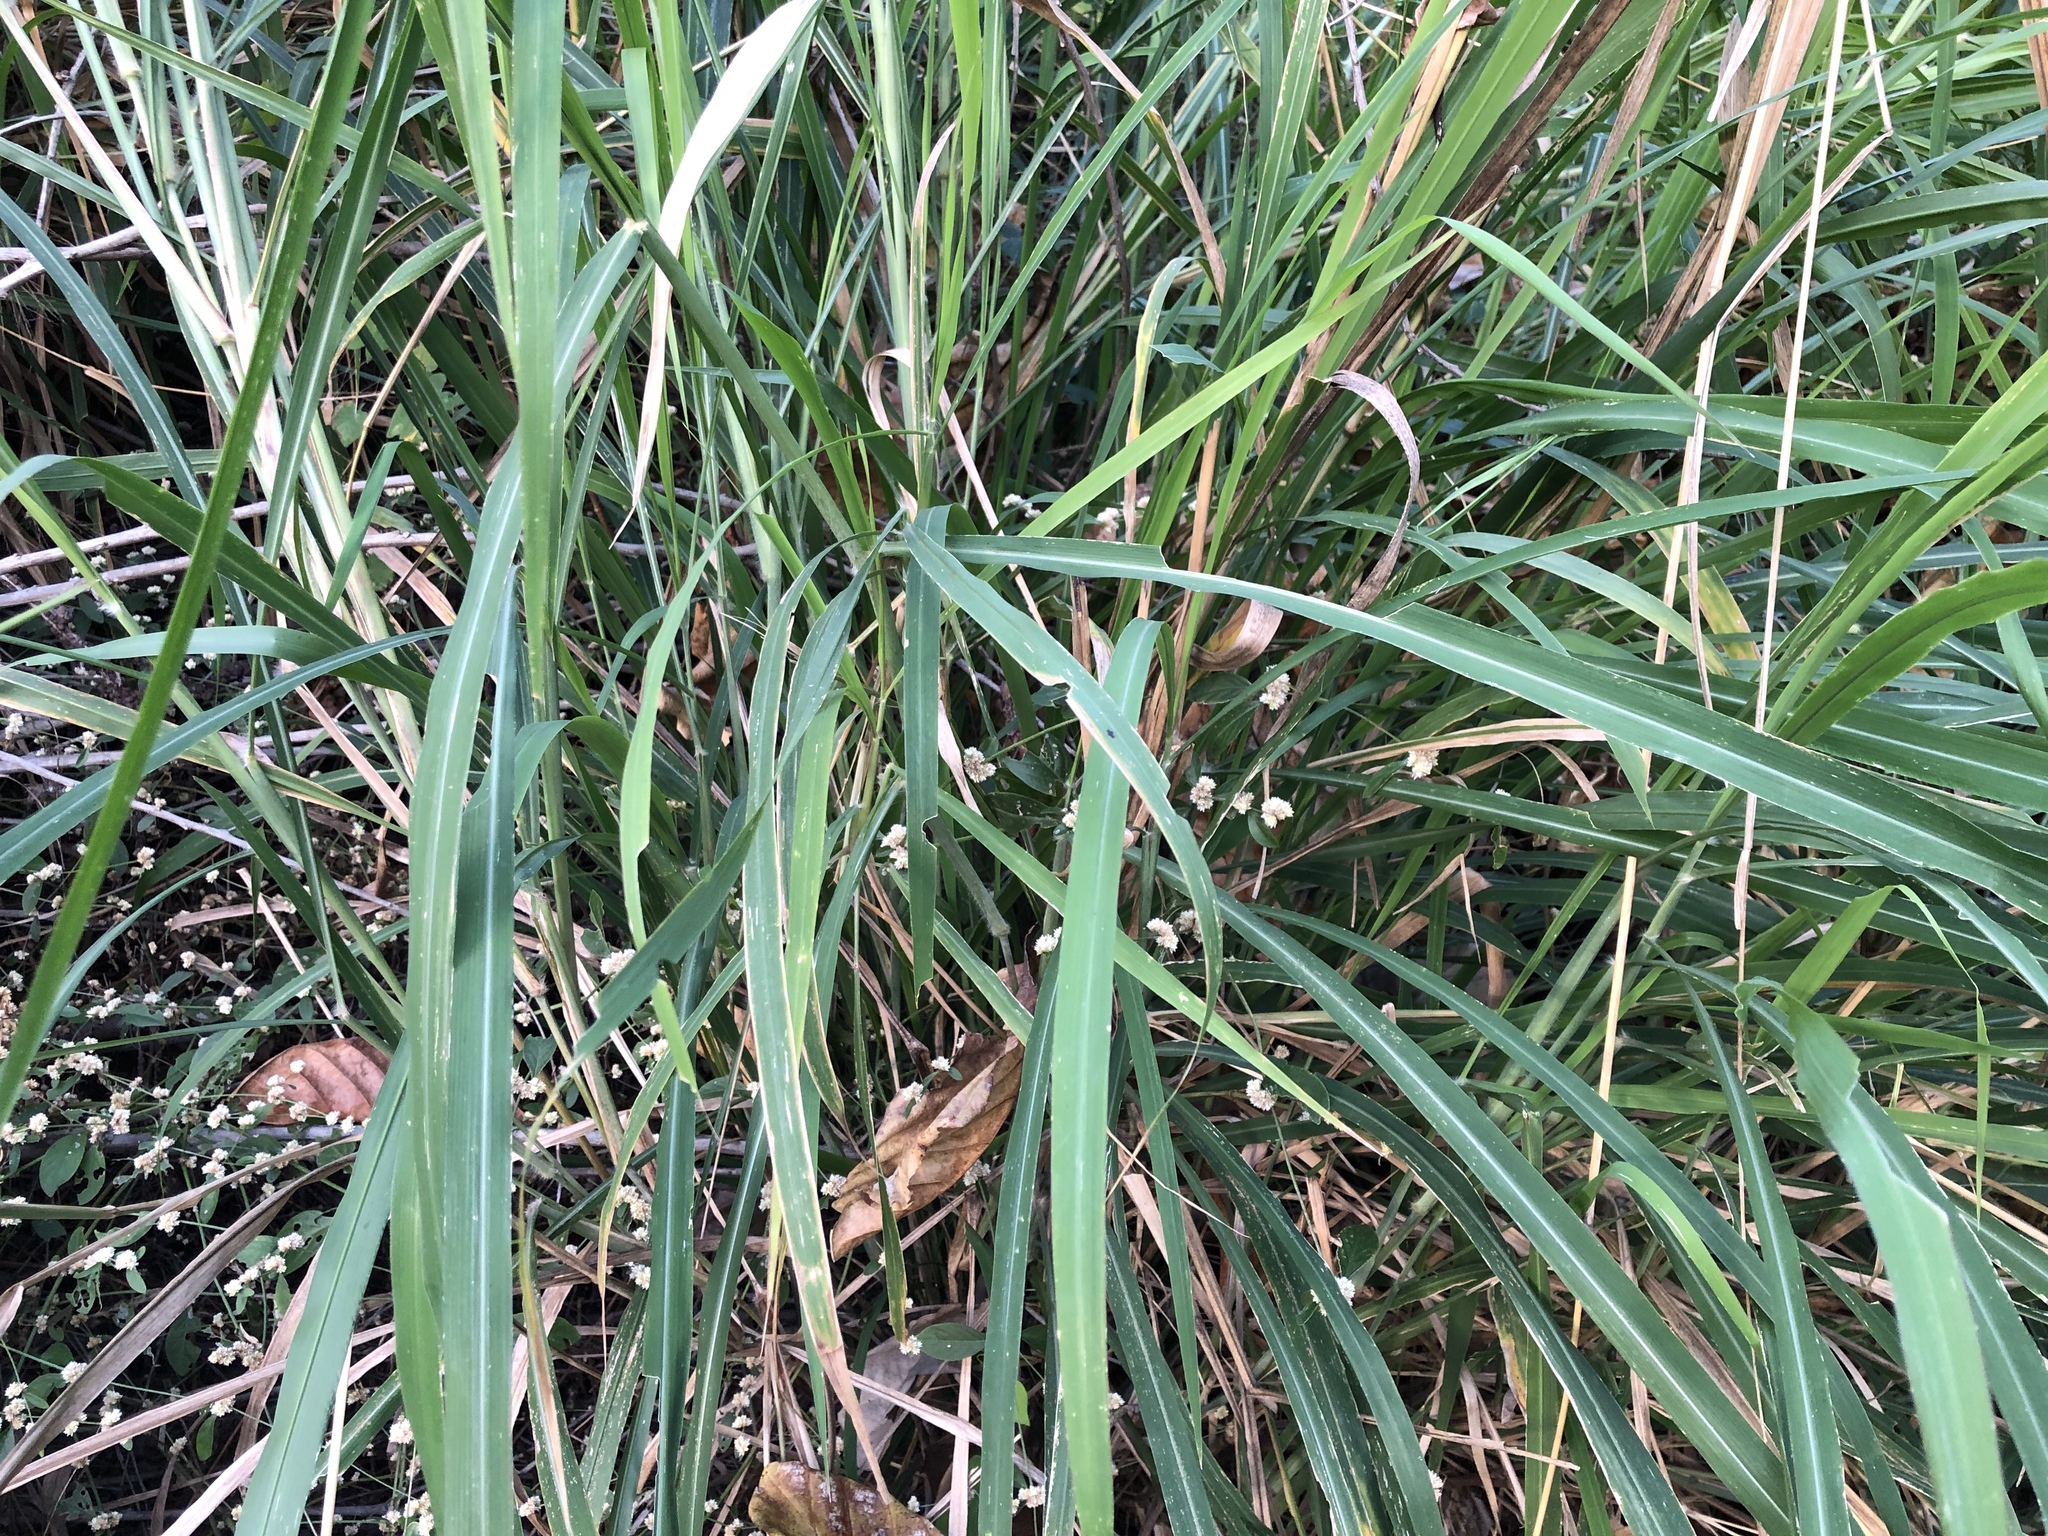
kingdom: Plantae
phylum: Tracheophyta
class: Liliopsida
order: Poales
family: Poaceae
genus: Megathyrsus
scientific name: Megathyrsus maximus
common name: Guineagrass
